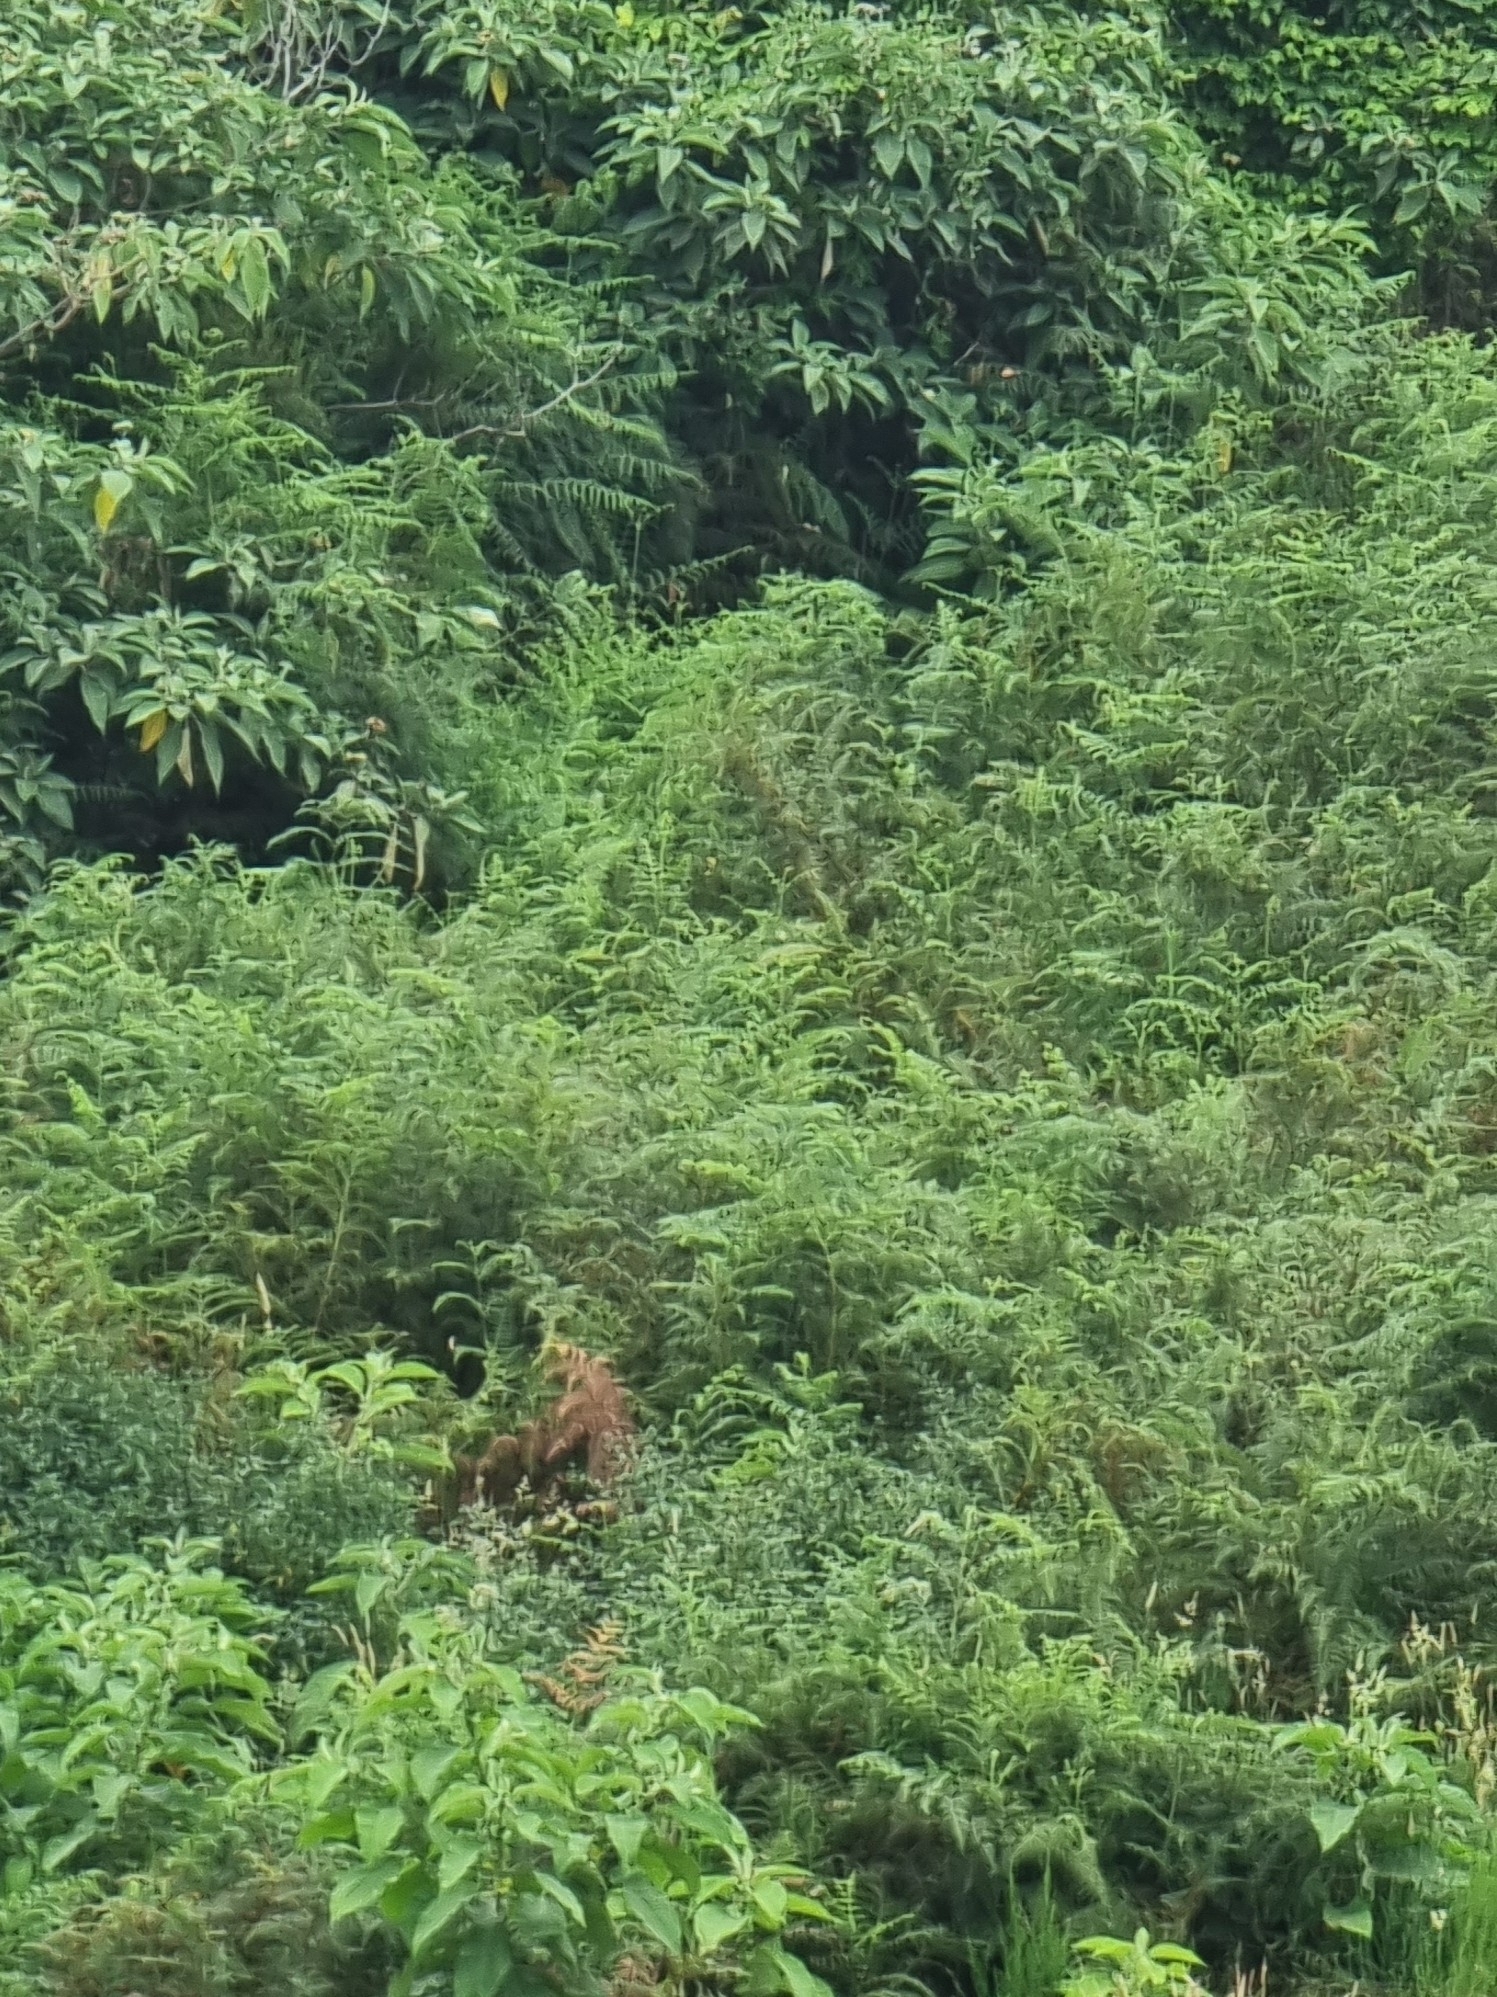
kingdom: Plantae
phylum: Tracheophyta
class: Polypodiopsida
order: Polypodiales
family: Dennstaedtiaceae
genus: Pteridium
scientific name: Pteridium aquilinum
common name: Bracken
